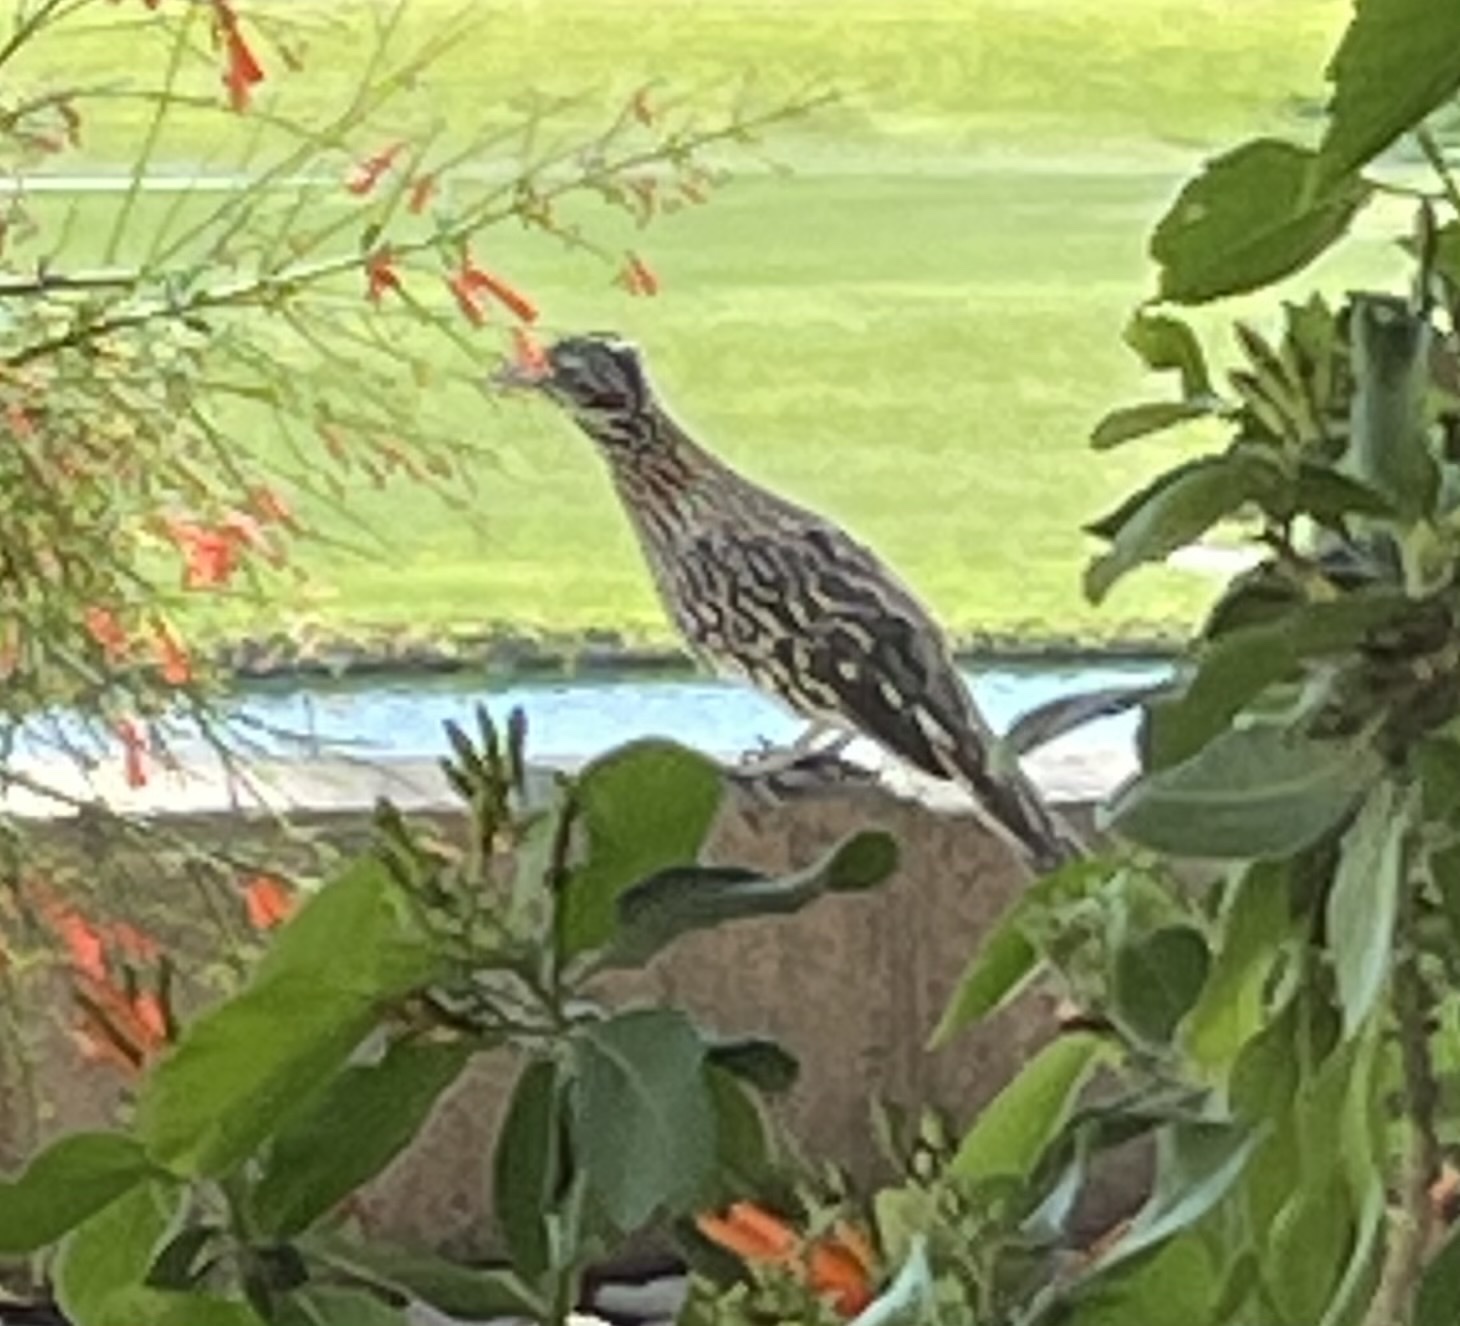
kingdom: Animalia
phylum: Chordata
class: Aves
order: Cuculiformes
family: Cuculidae
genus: Geococcyx
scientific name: Geococcyx californianus
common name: Greater roadrunner
